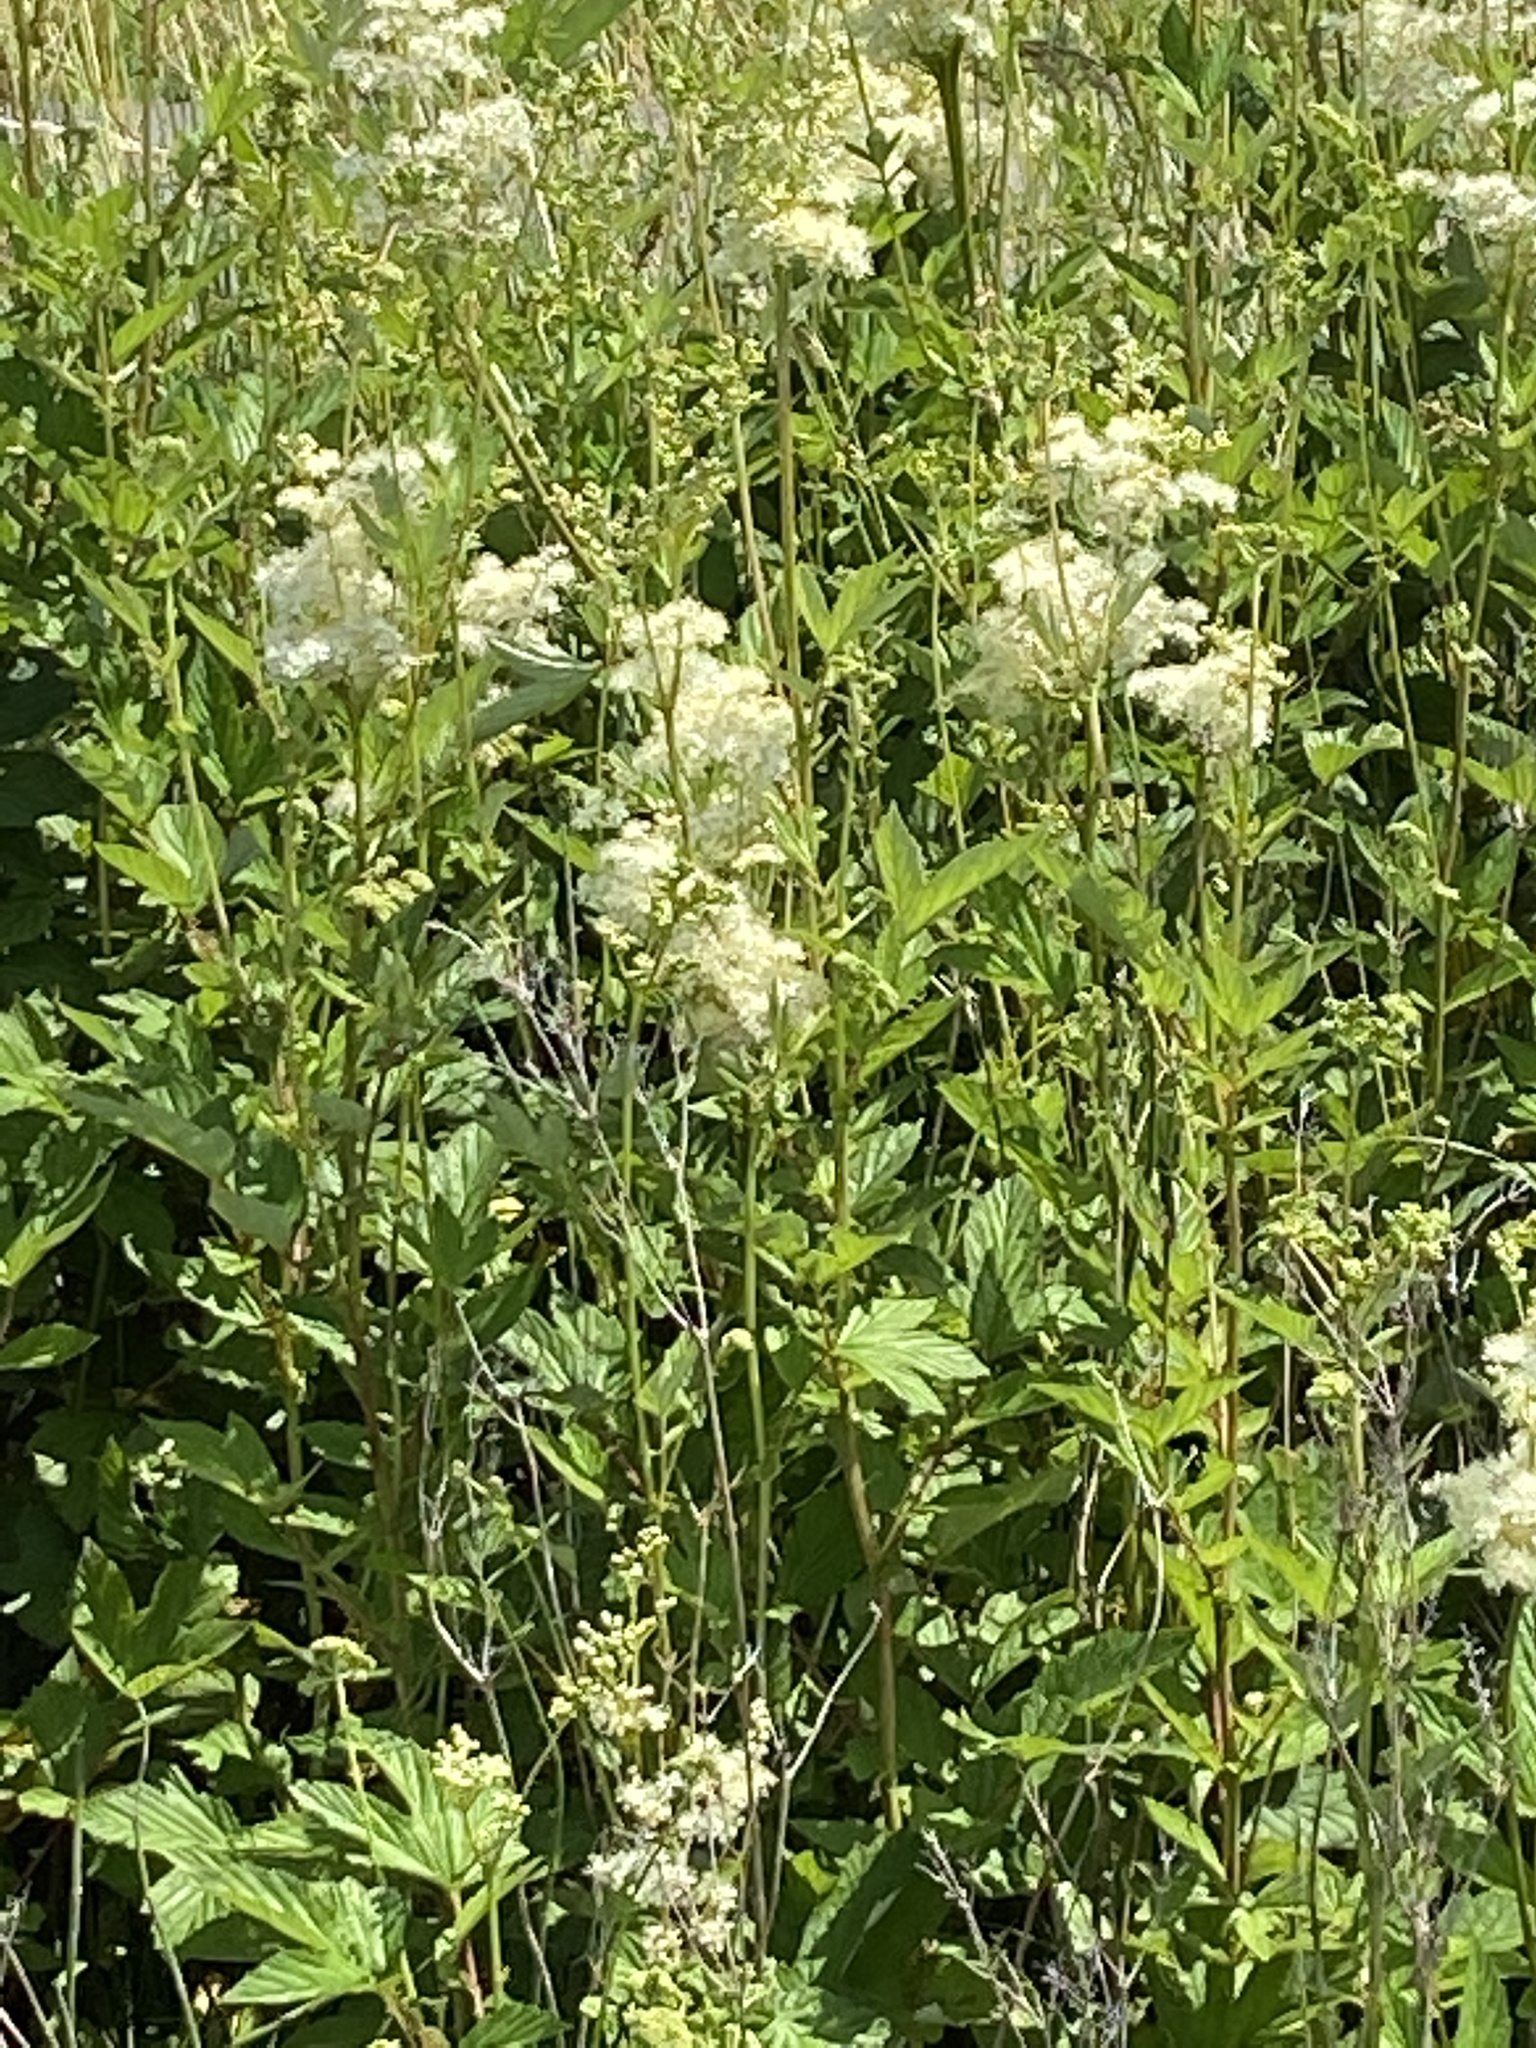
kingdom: Plantae
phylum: Tracheophyta
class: Magnoliopsida
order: Rosales
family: Rosaceae
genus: Filipendula
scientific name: Filipendula ulmaria
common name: Meadowsweet
